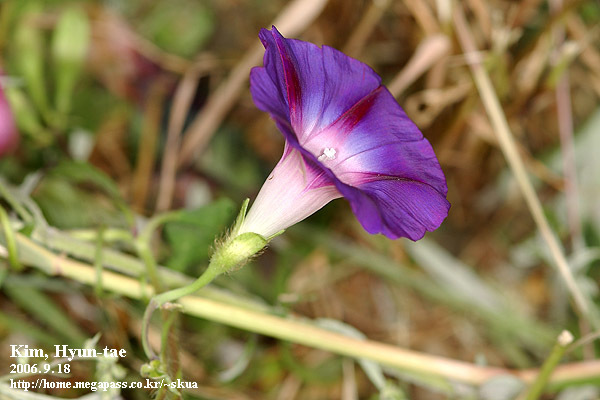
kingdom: Plantae
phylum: Tracheophyta
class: Magnoliopsida
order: Solanales
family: Convolvulaceae
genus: Ipomoea
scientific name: Ipomoea purpurea
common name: Common morning-glory
